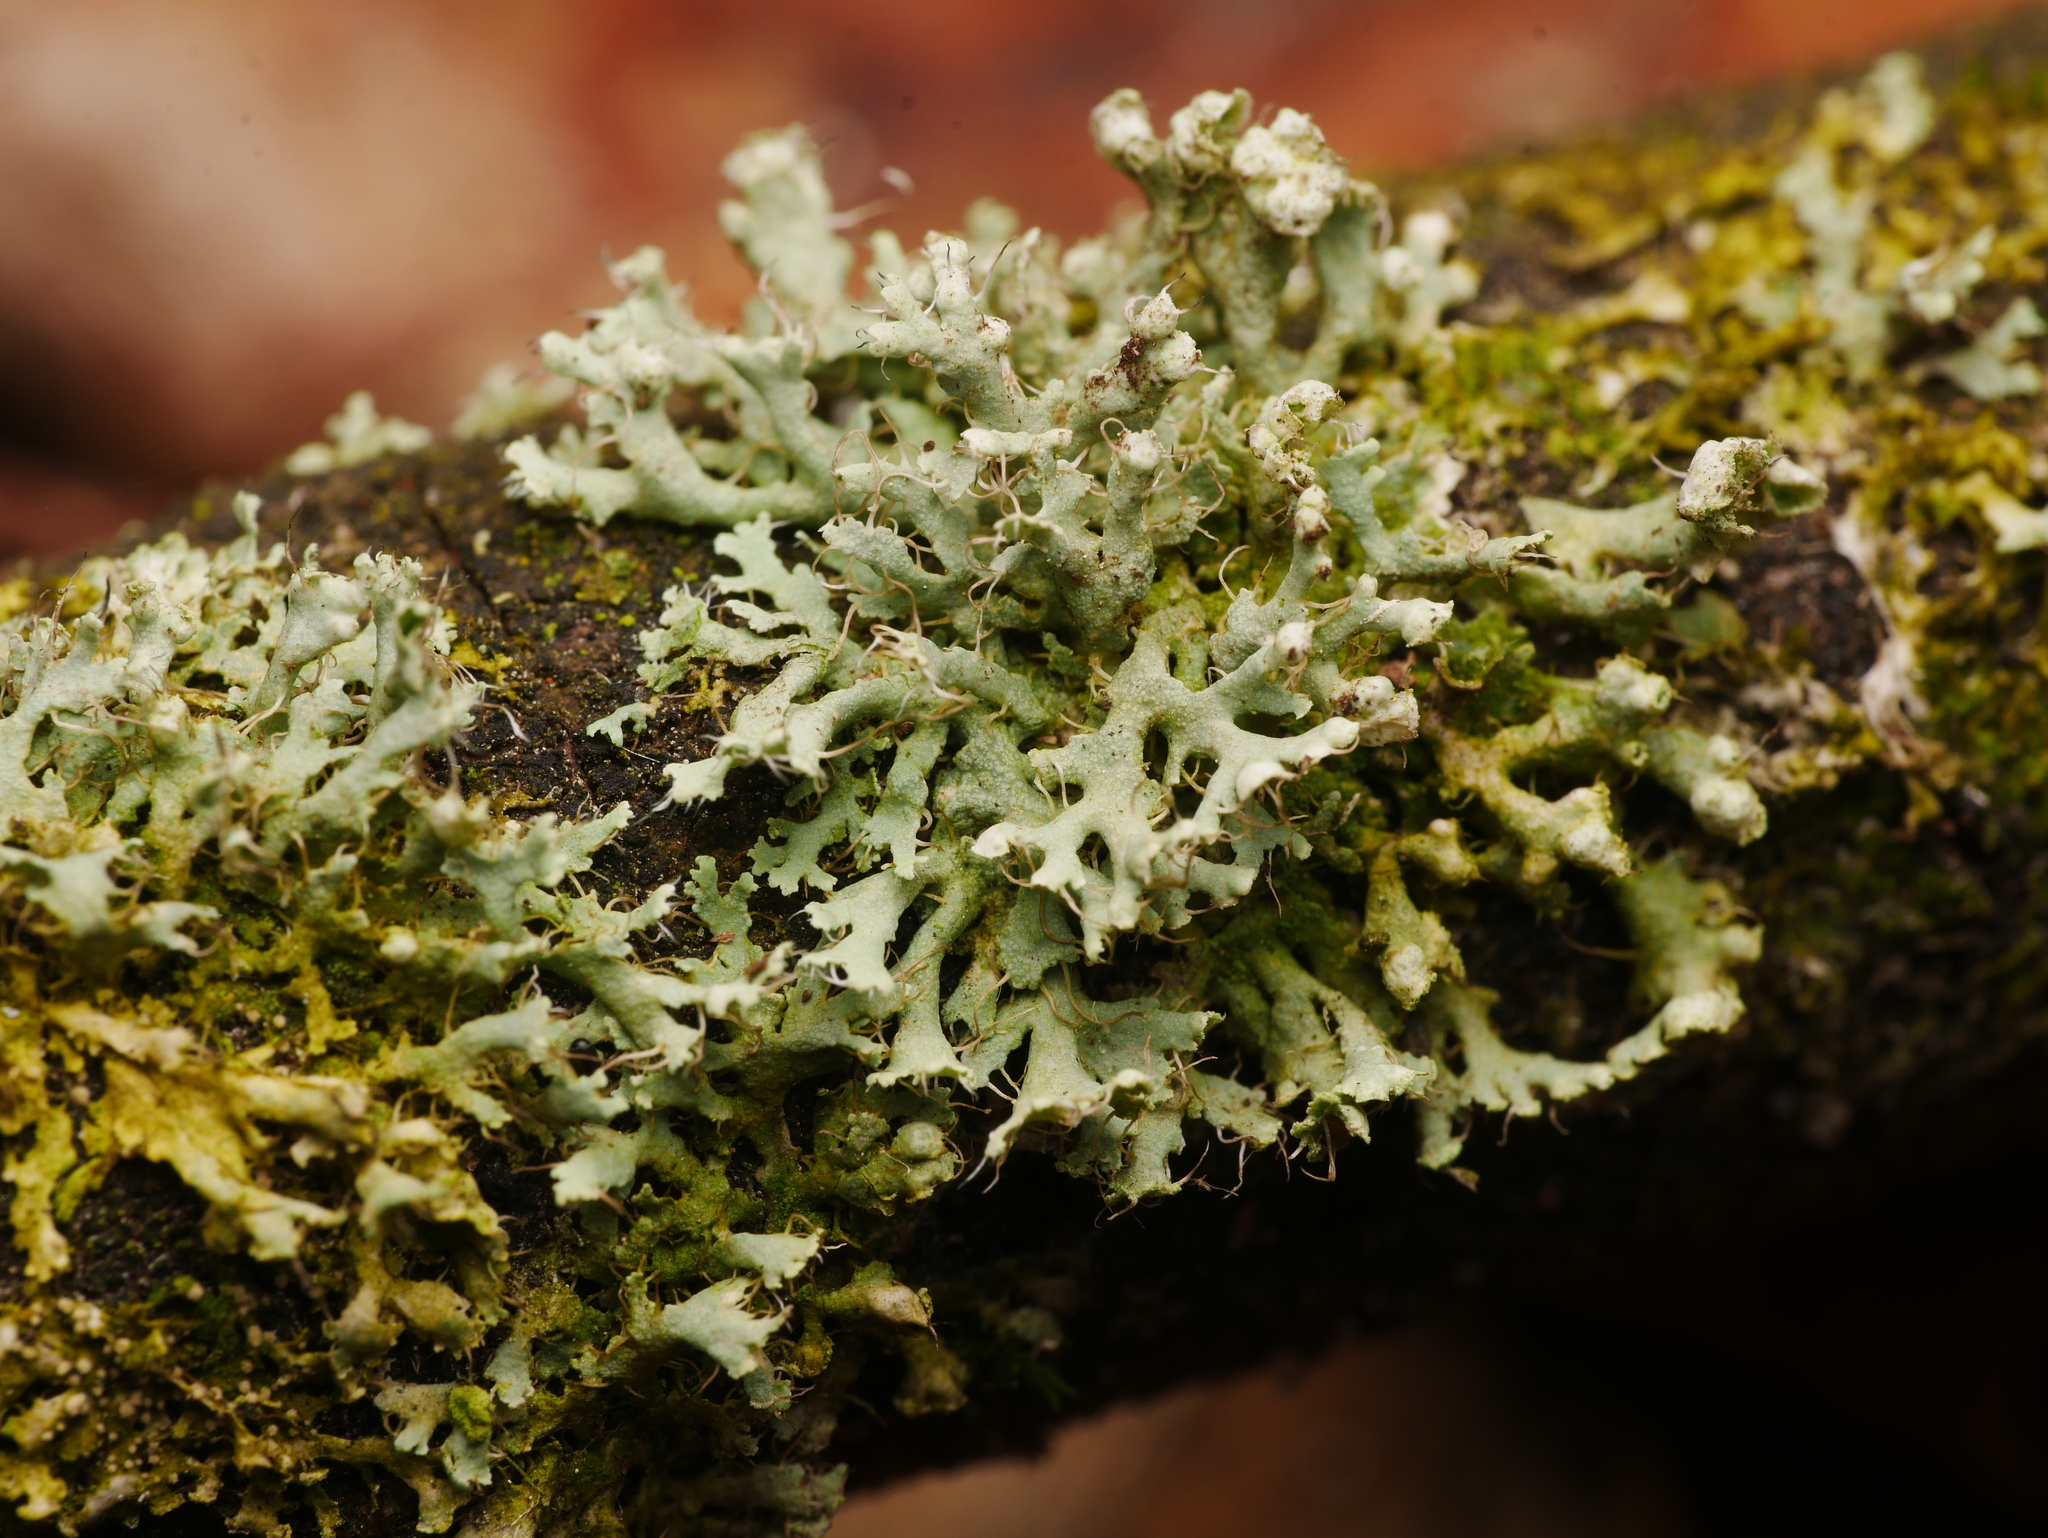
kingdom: Fungi
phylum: Ascomycota
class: Lecanoromycetes
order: Caliciales
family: Physciaceae
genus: Physcia
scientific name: Physcia adscendens
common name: Hooded rosette lichen
